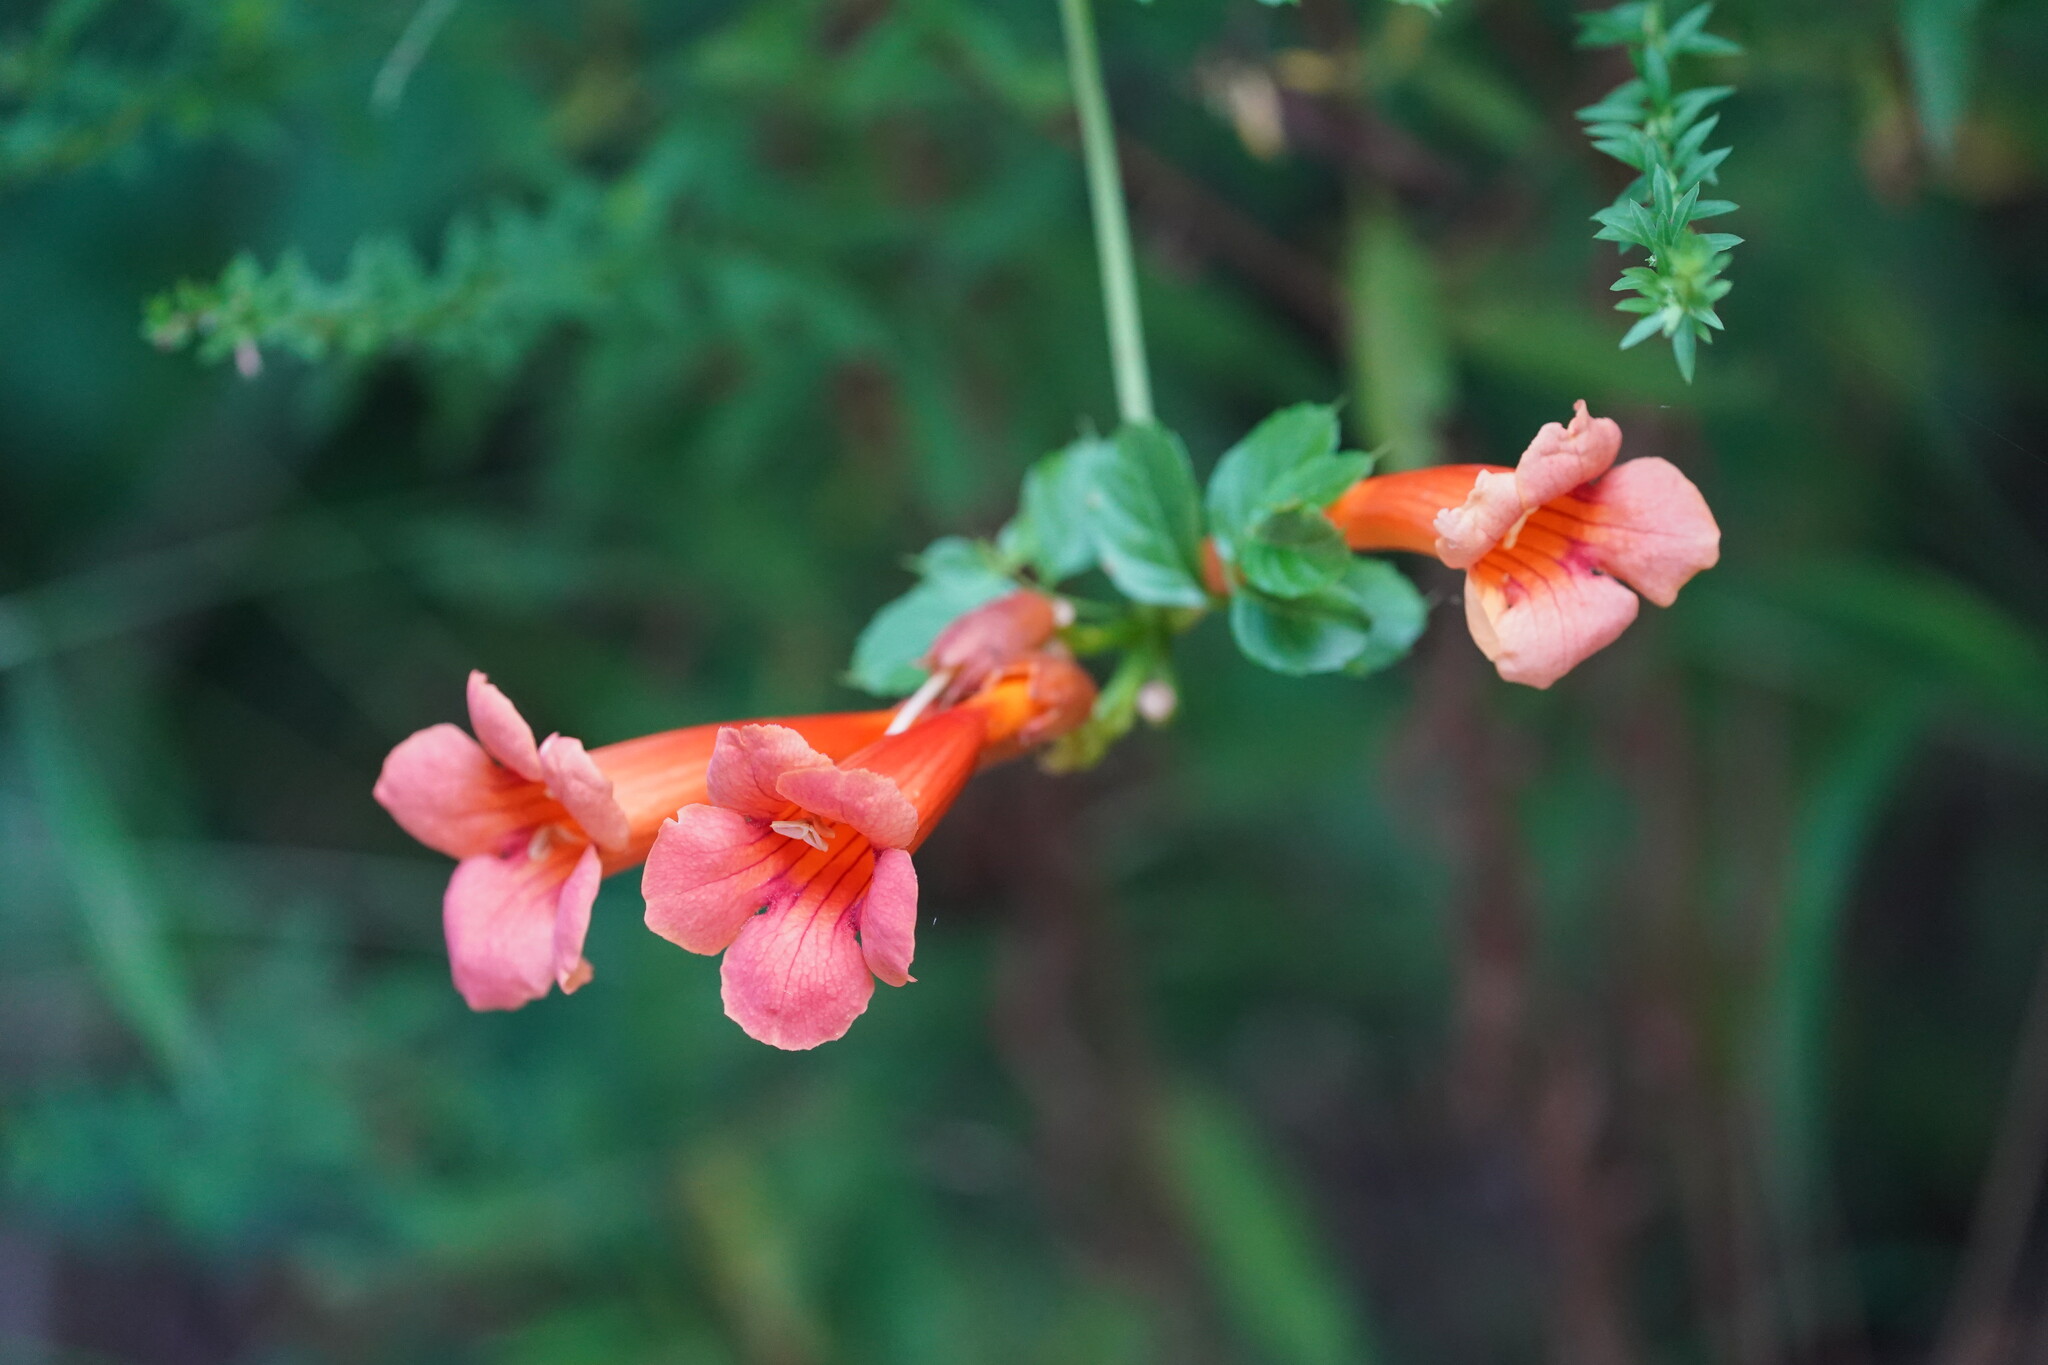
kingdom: Plantae
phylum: Tracheophyta
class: Magnoliopsida
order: Lamiales
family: Bignoniaceae
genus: Campsis
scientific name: Campsis radicans
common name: Trumpet-creeper
